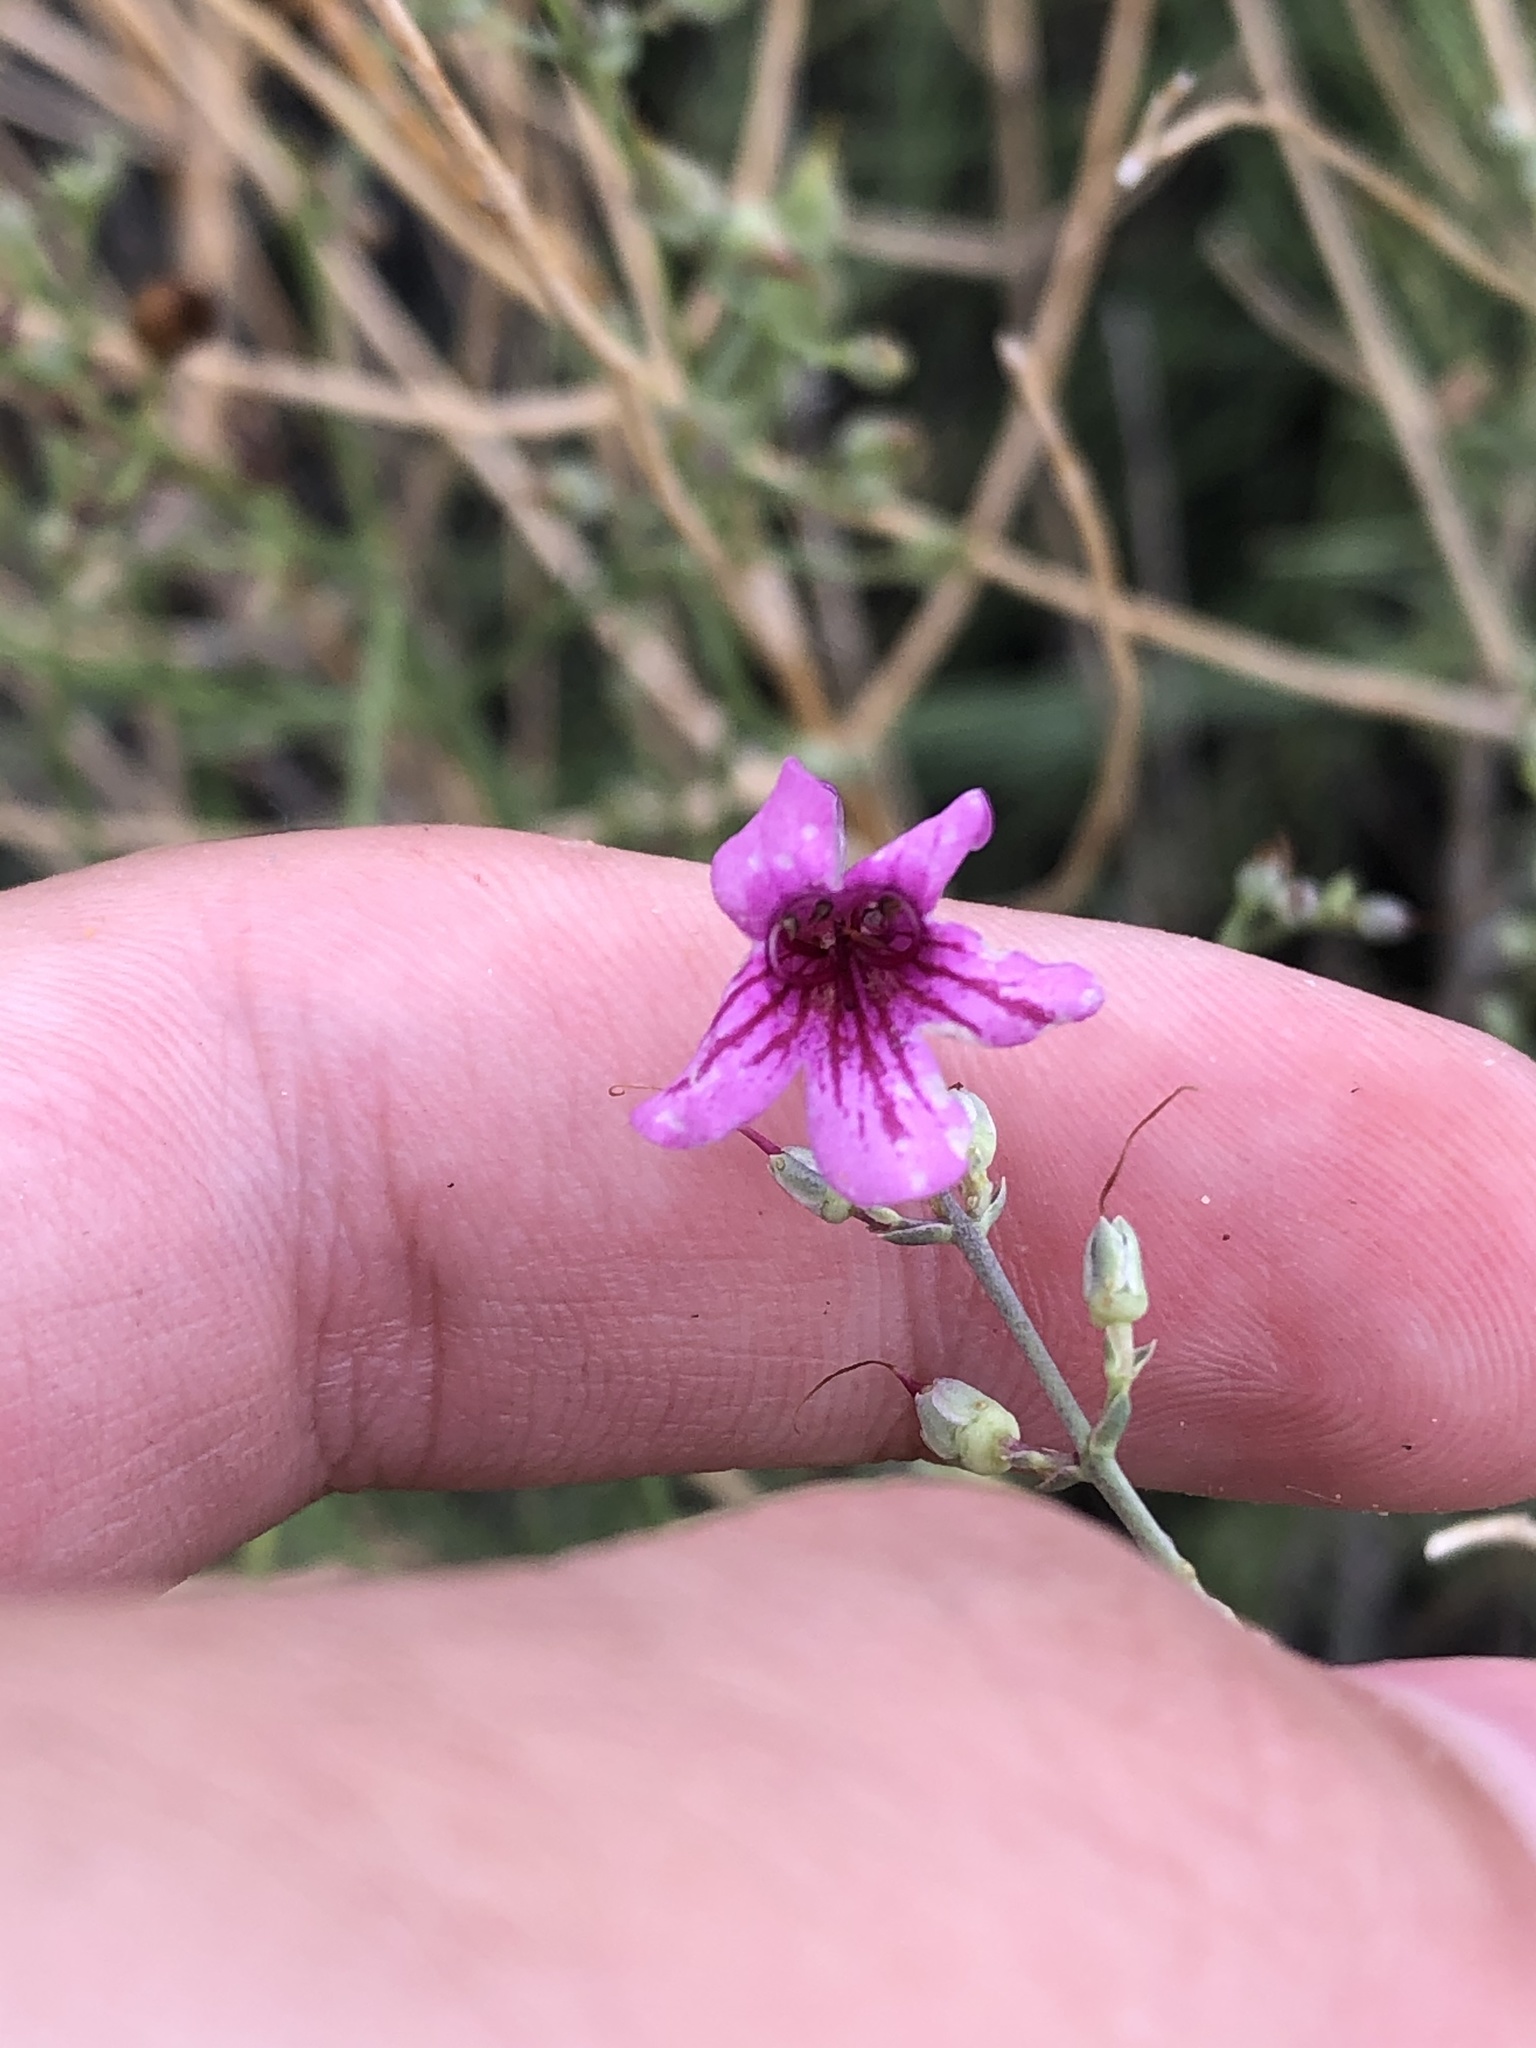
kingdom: Plantae
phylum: Tracheophyta
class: Magnoliopsida
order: Lamiales
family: Plantaginaceae
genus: Penstemon
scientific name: Penstemon thurberi
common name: Thurber's beardtongue
